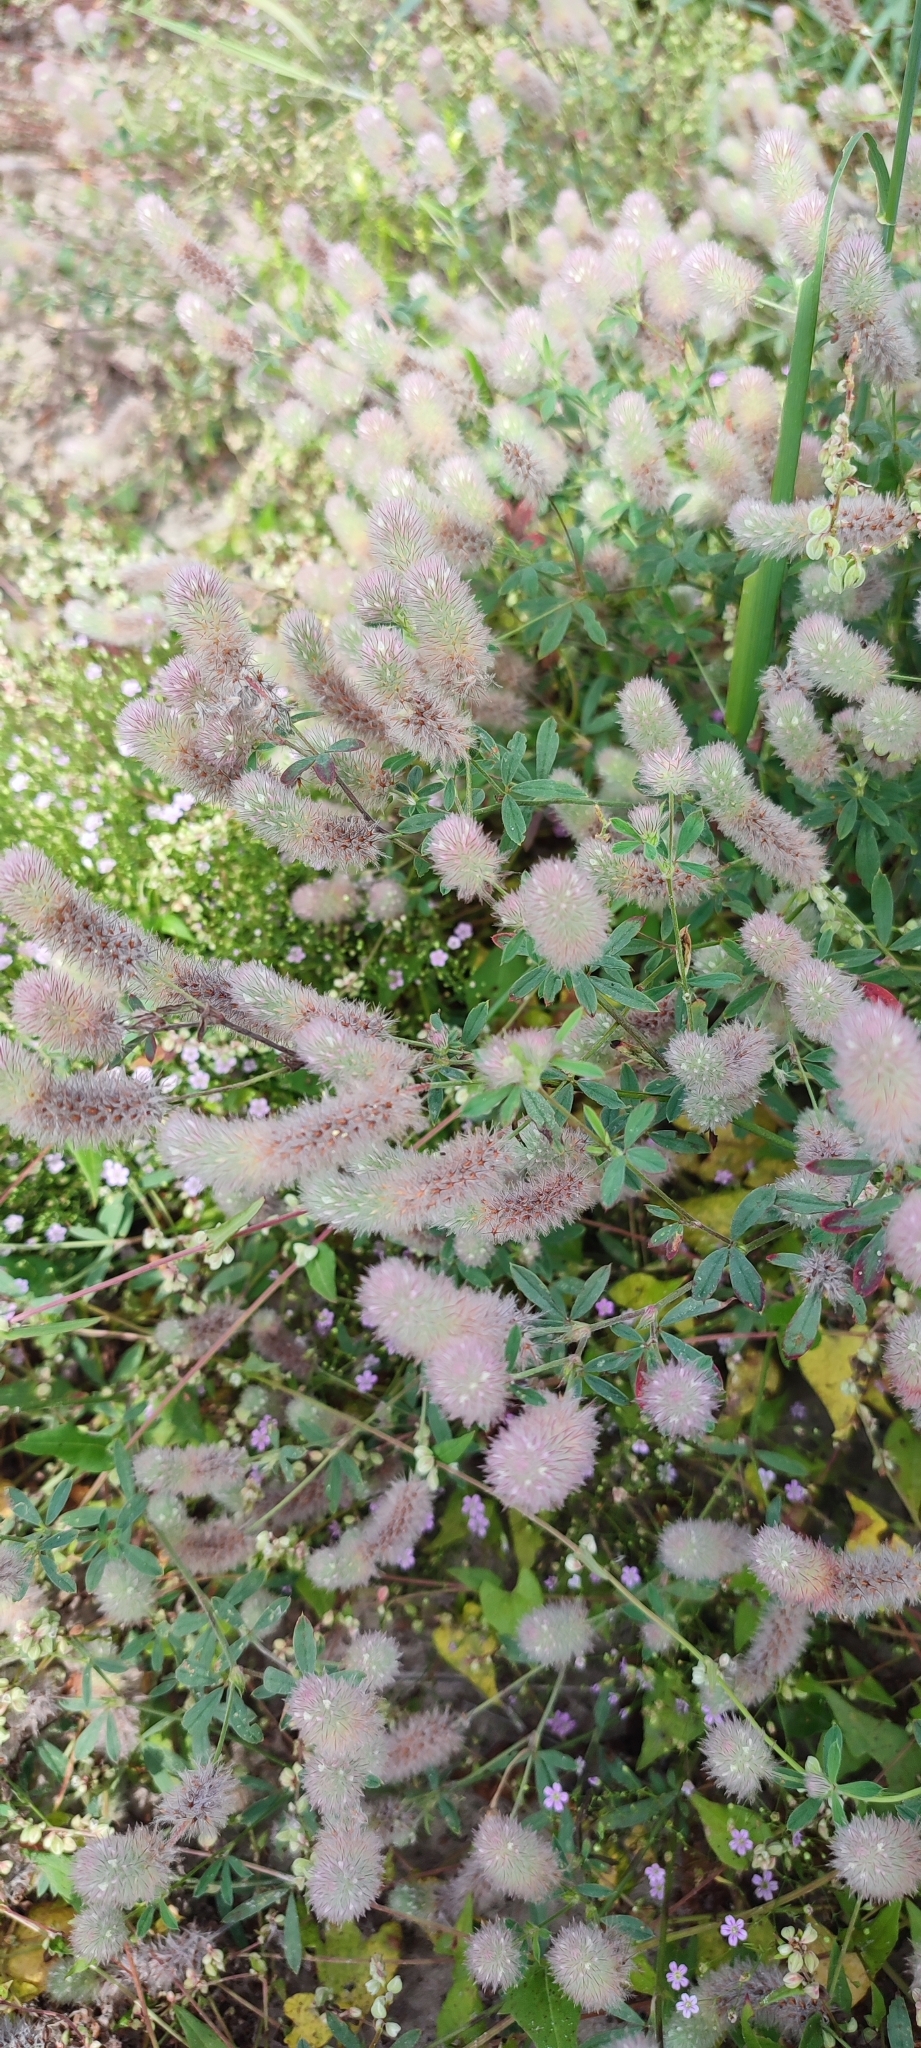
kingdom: Plantae
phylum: Tracheophyta
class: Magnoliopsida
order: Fabales
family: Fabaceae
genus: Trifolium
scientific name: Trifolium arvense
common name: Hare's-foot clover
